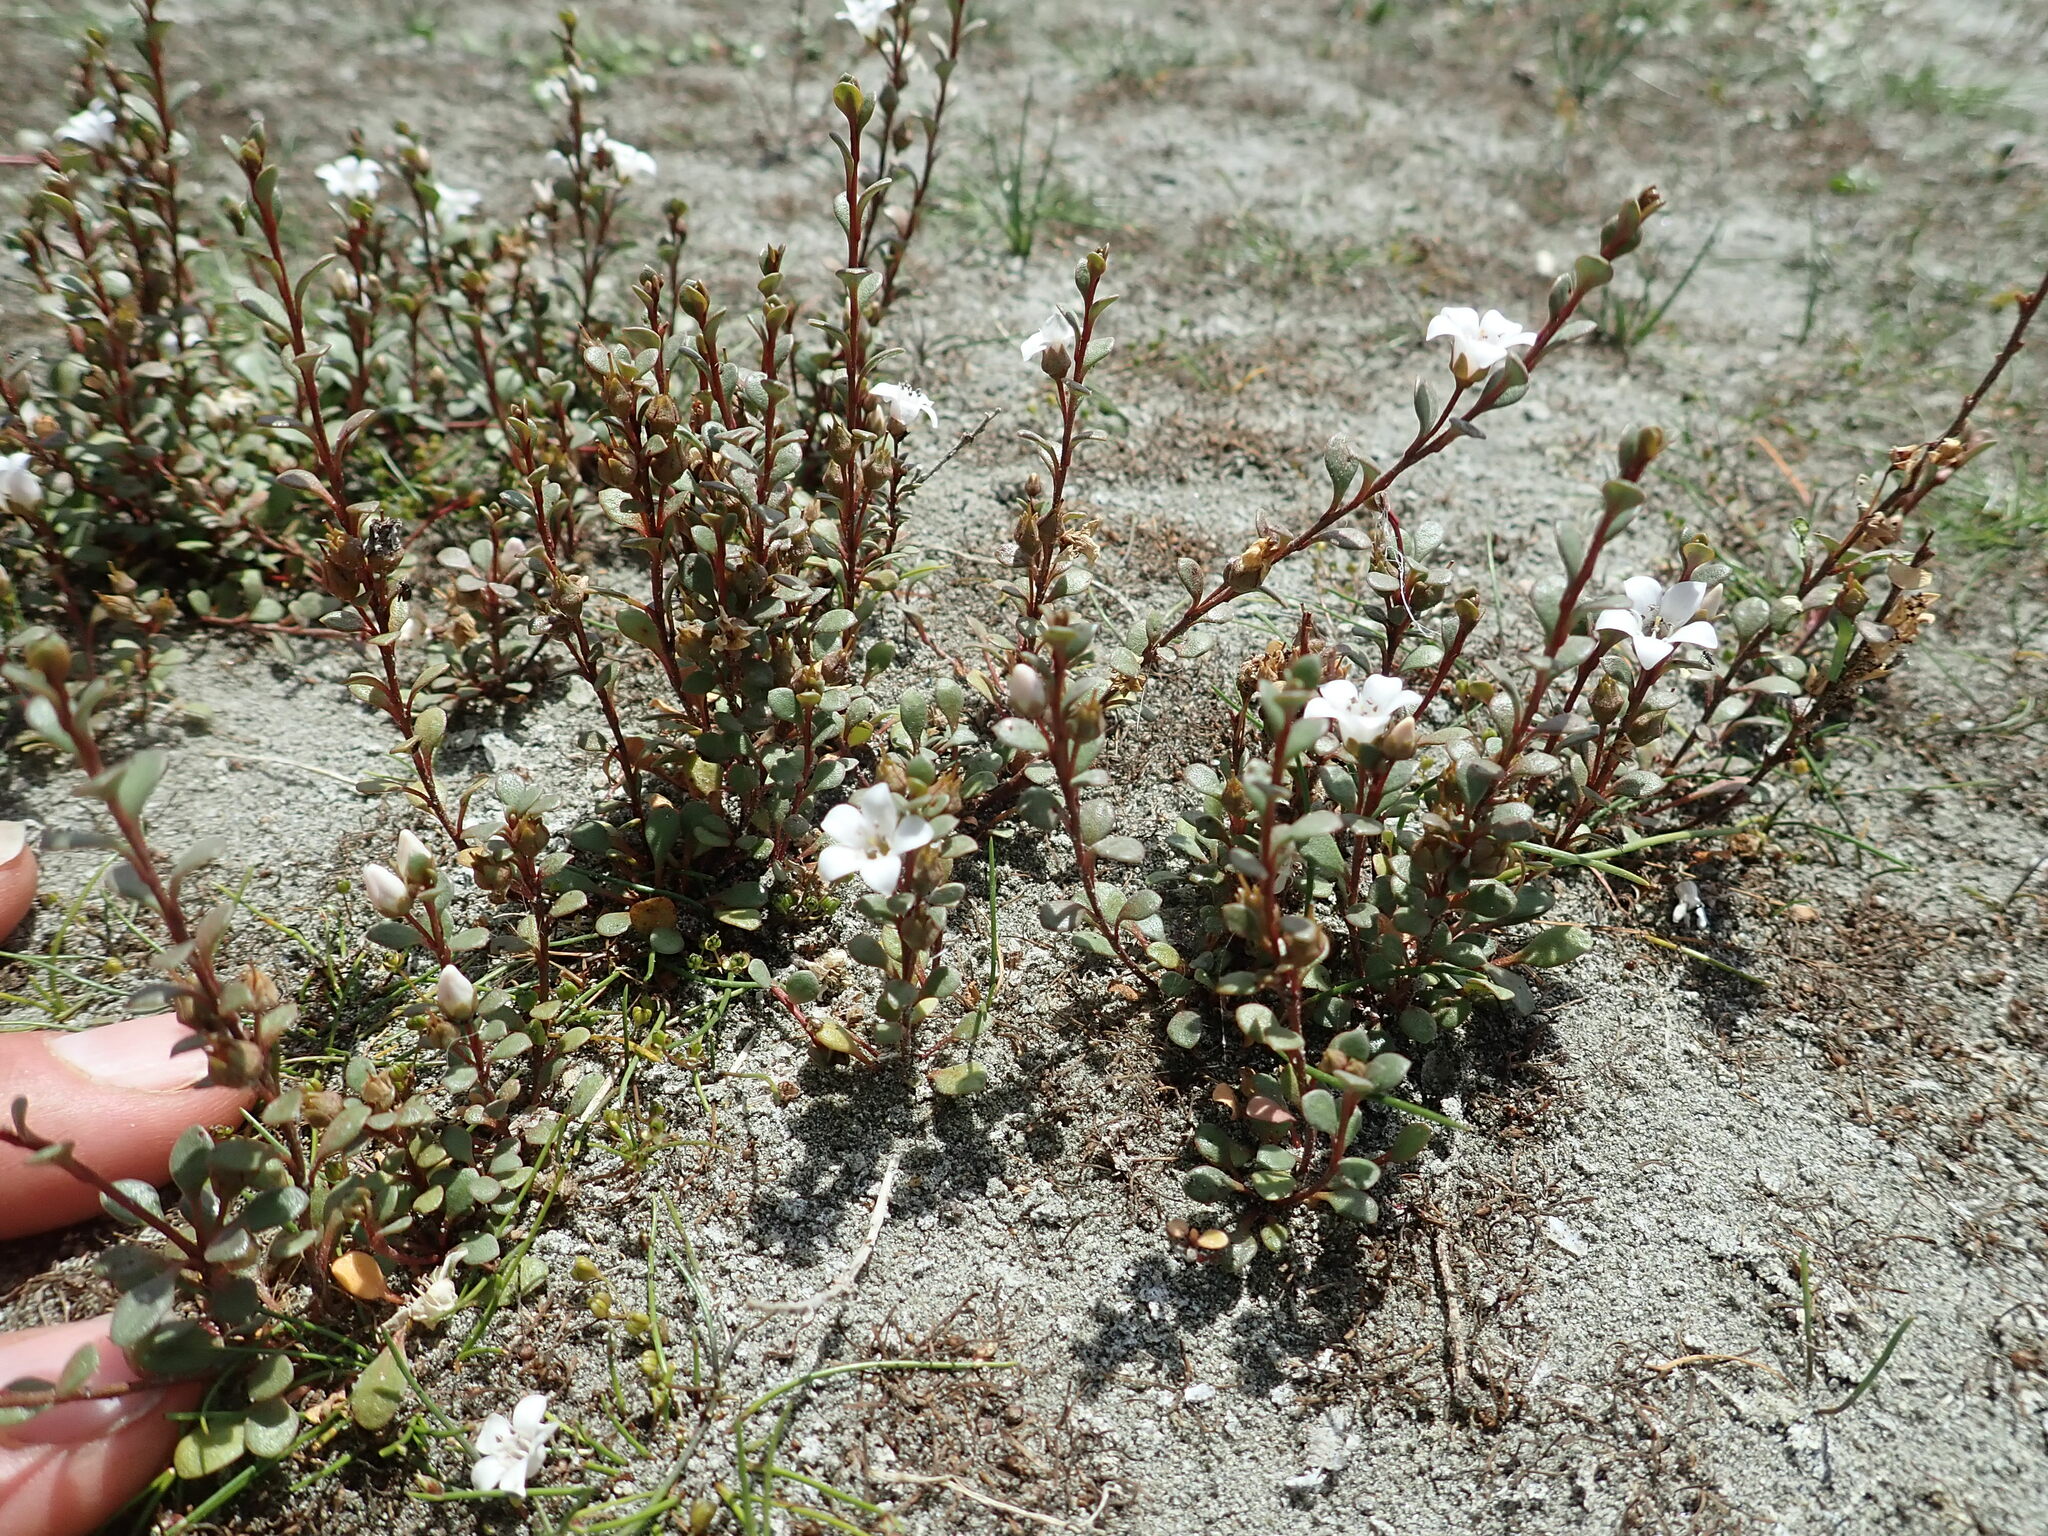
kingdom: Plantae
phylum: Tracheophyta
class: Magnoliopsida
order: Ericales
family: Primulaceae
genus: Samolus
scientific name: Samolus repens
